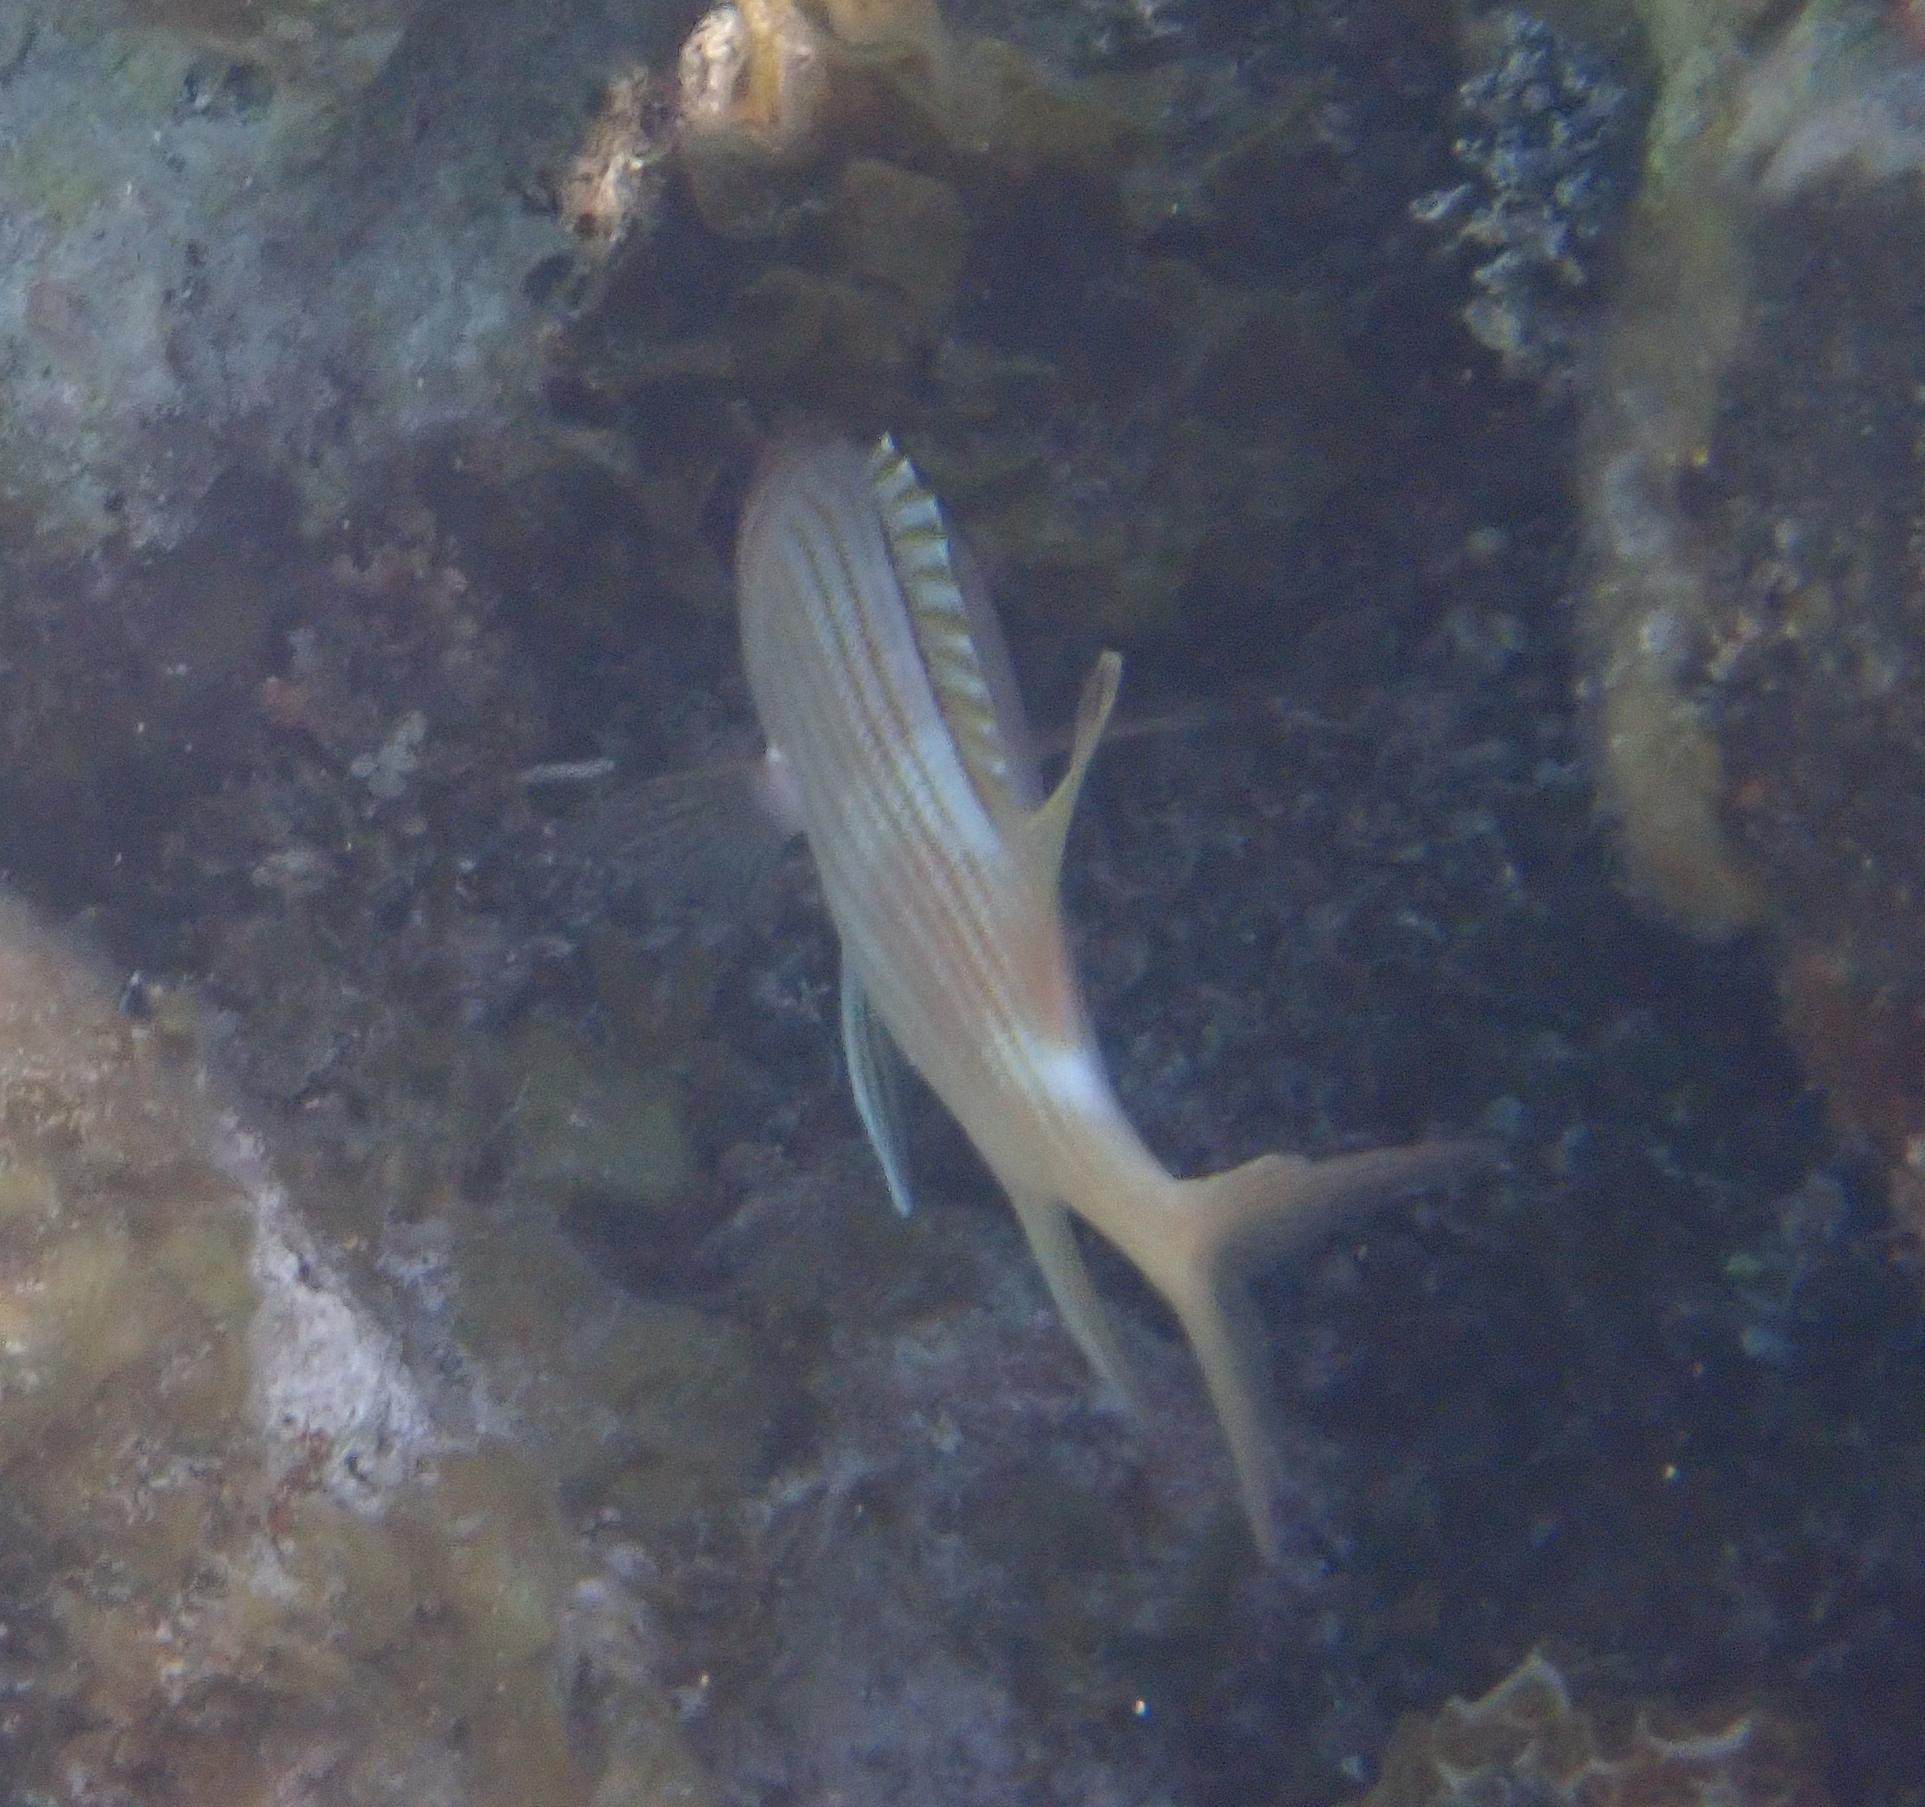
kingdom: Animalia
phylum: Chordata
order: Beryciformes
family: Holocentridae
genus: Holocentrus
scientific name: Holocentrus rufus
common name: Longspine squirrelfish
